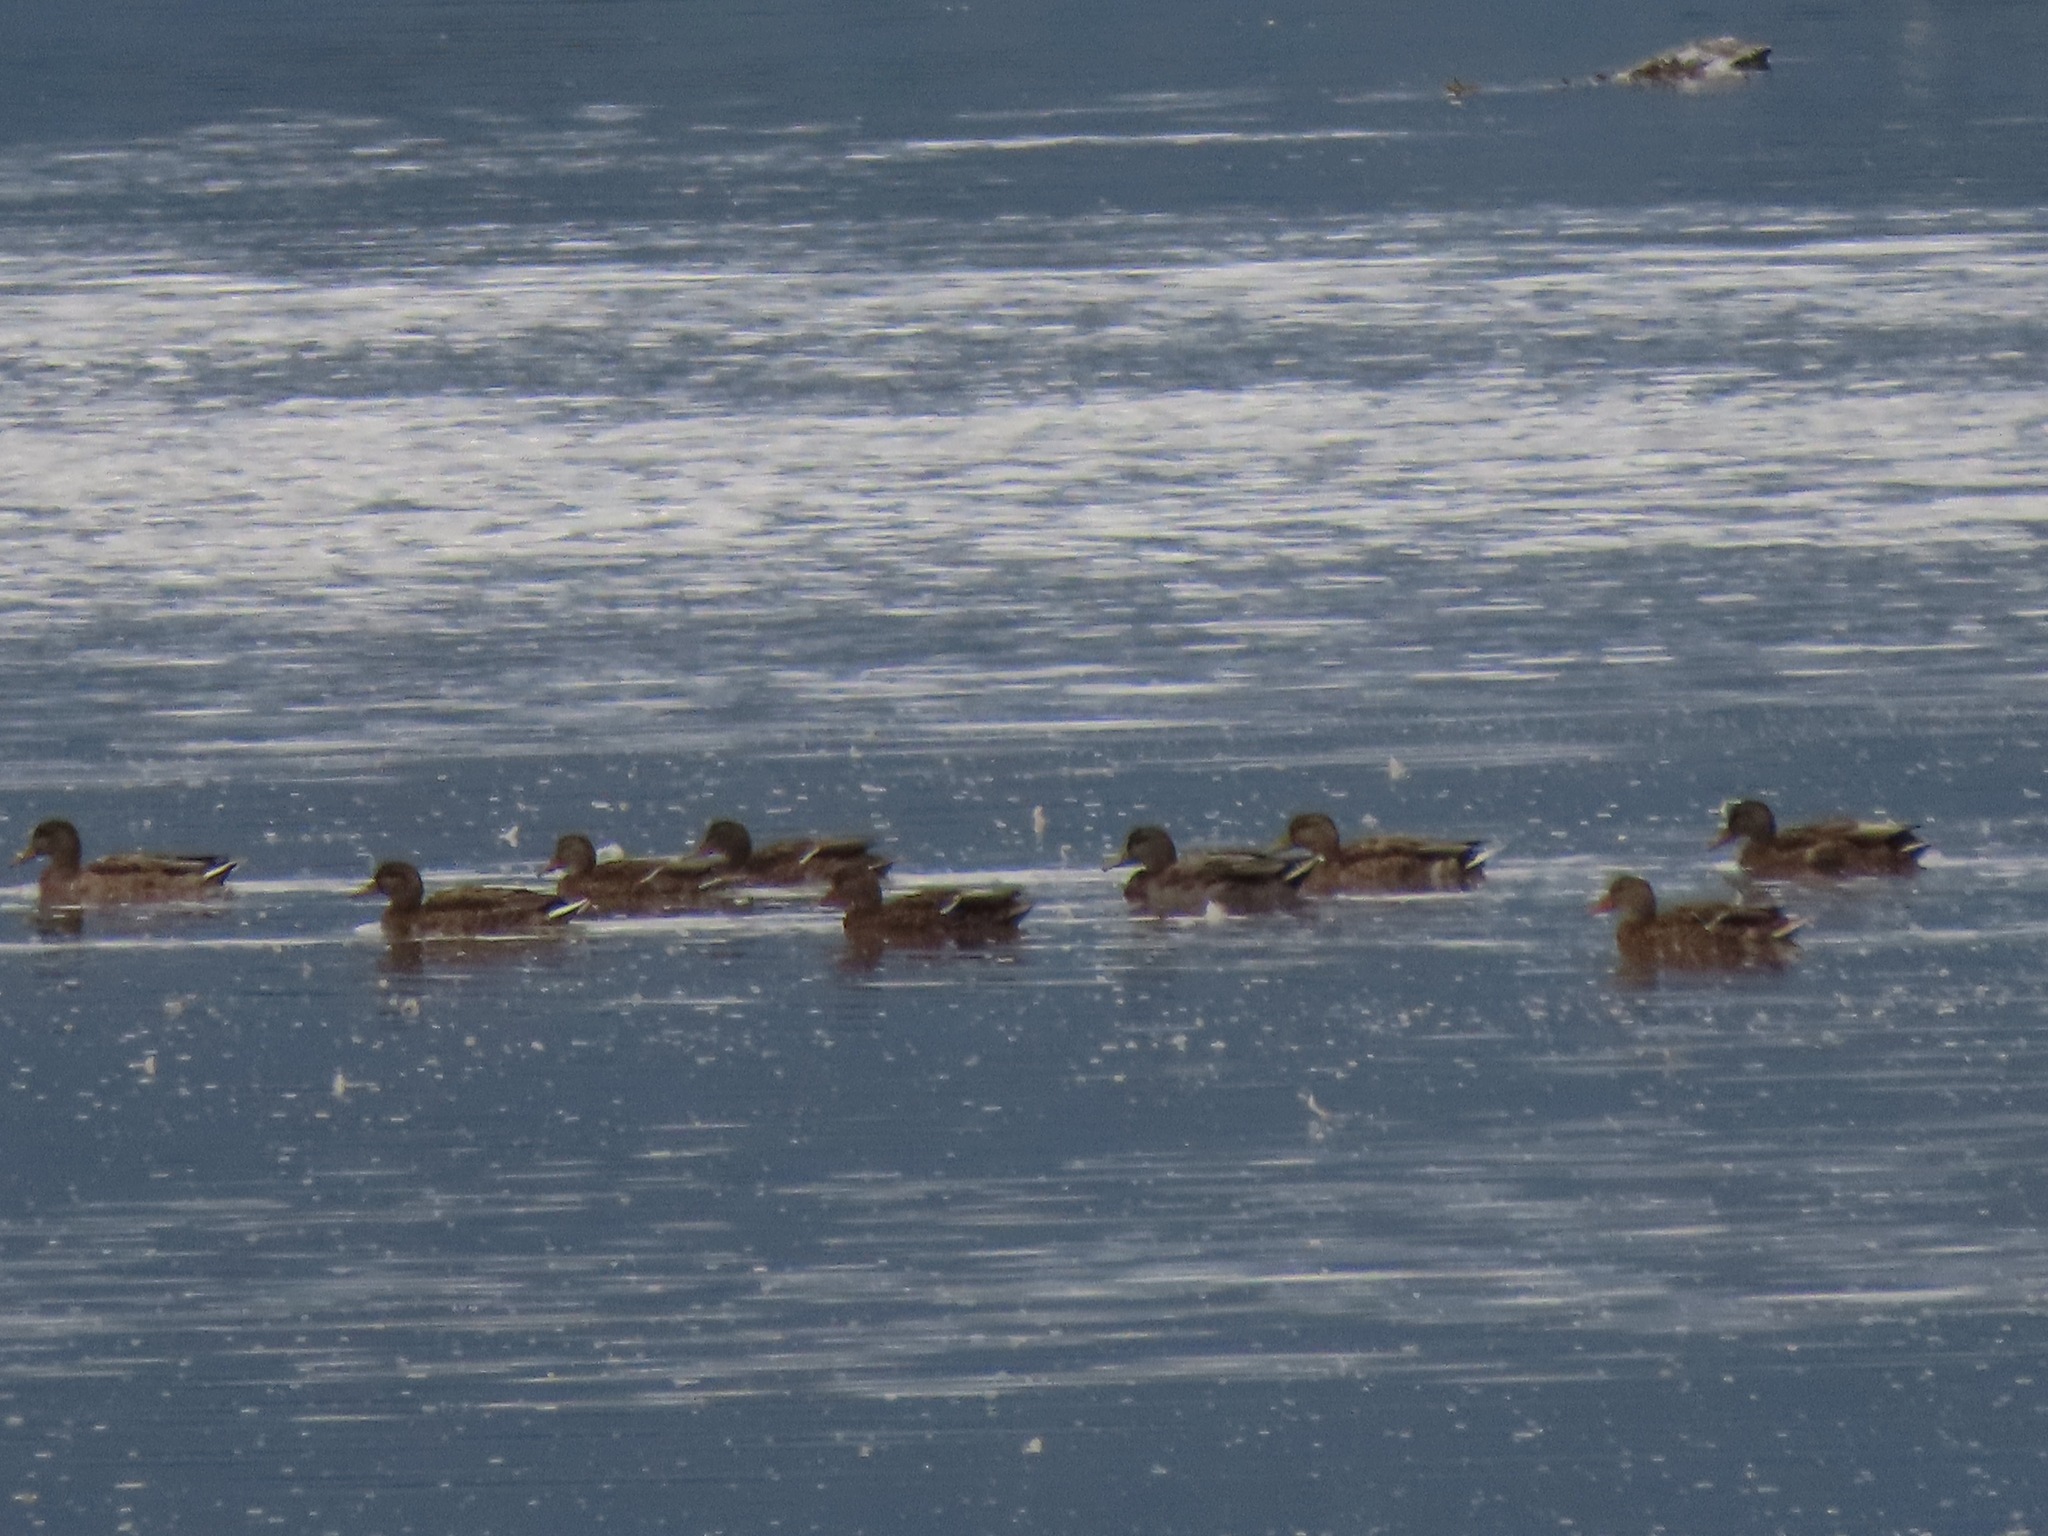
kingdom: Animalia
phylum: Chordata
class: Aves
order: Anseriformes
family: Anatidae
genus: Anas
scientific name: Anas platyrhynchos
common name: Mallard
